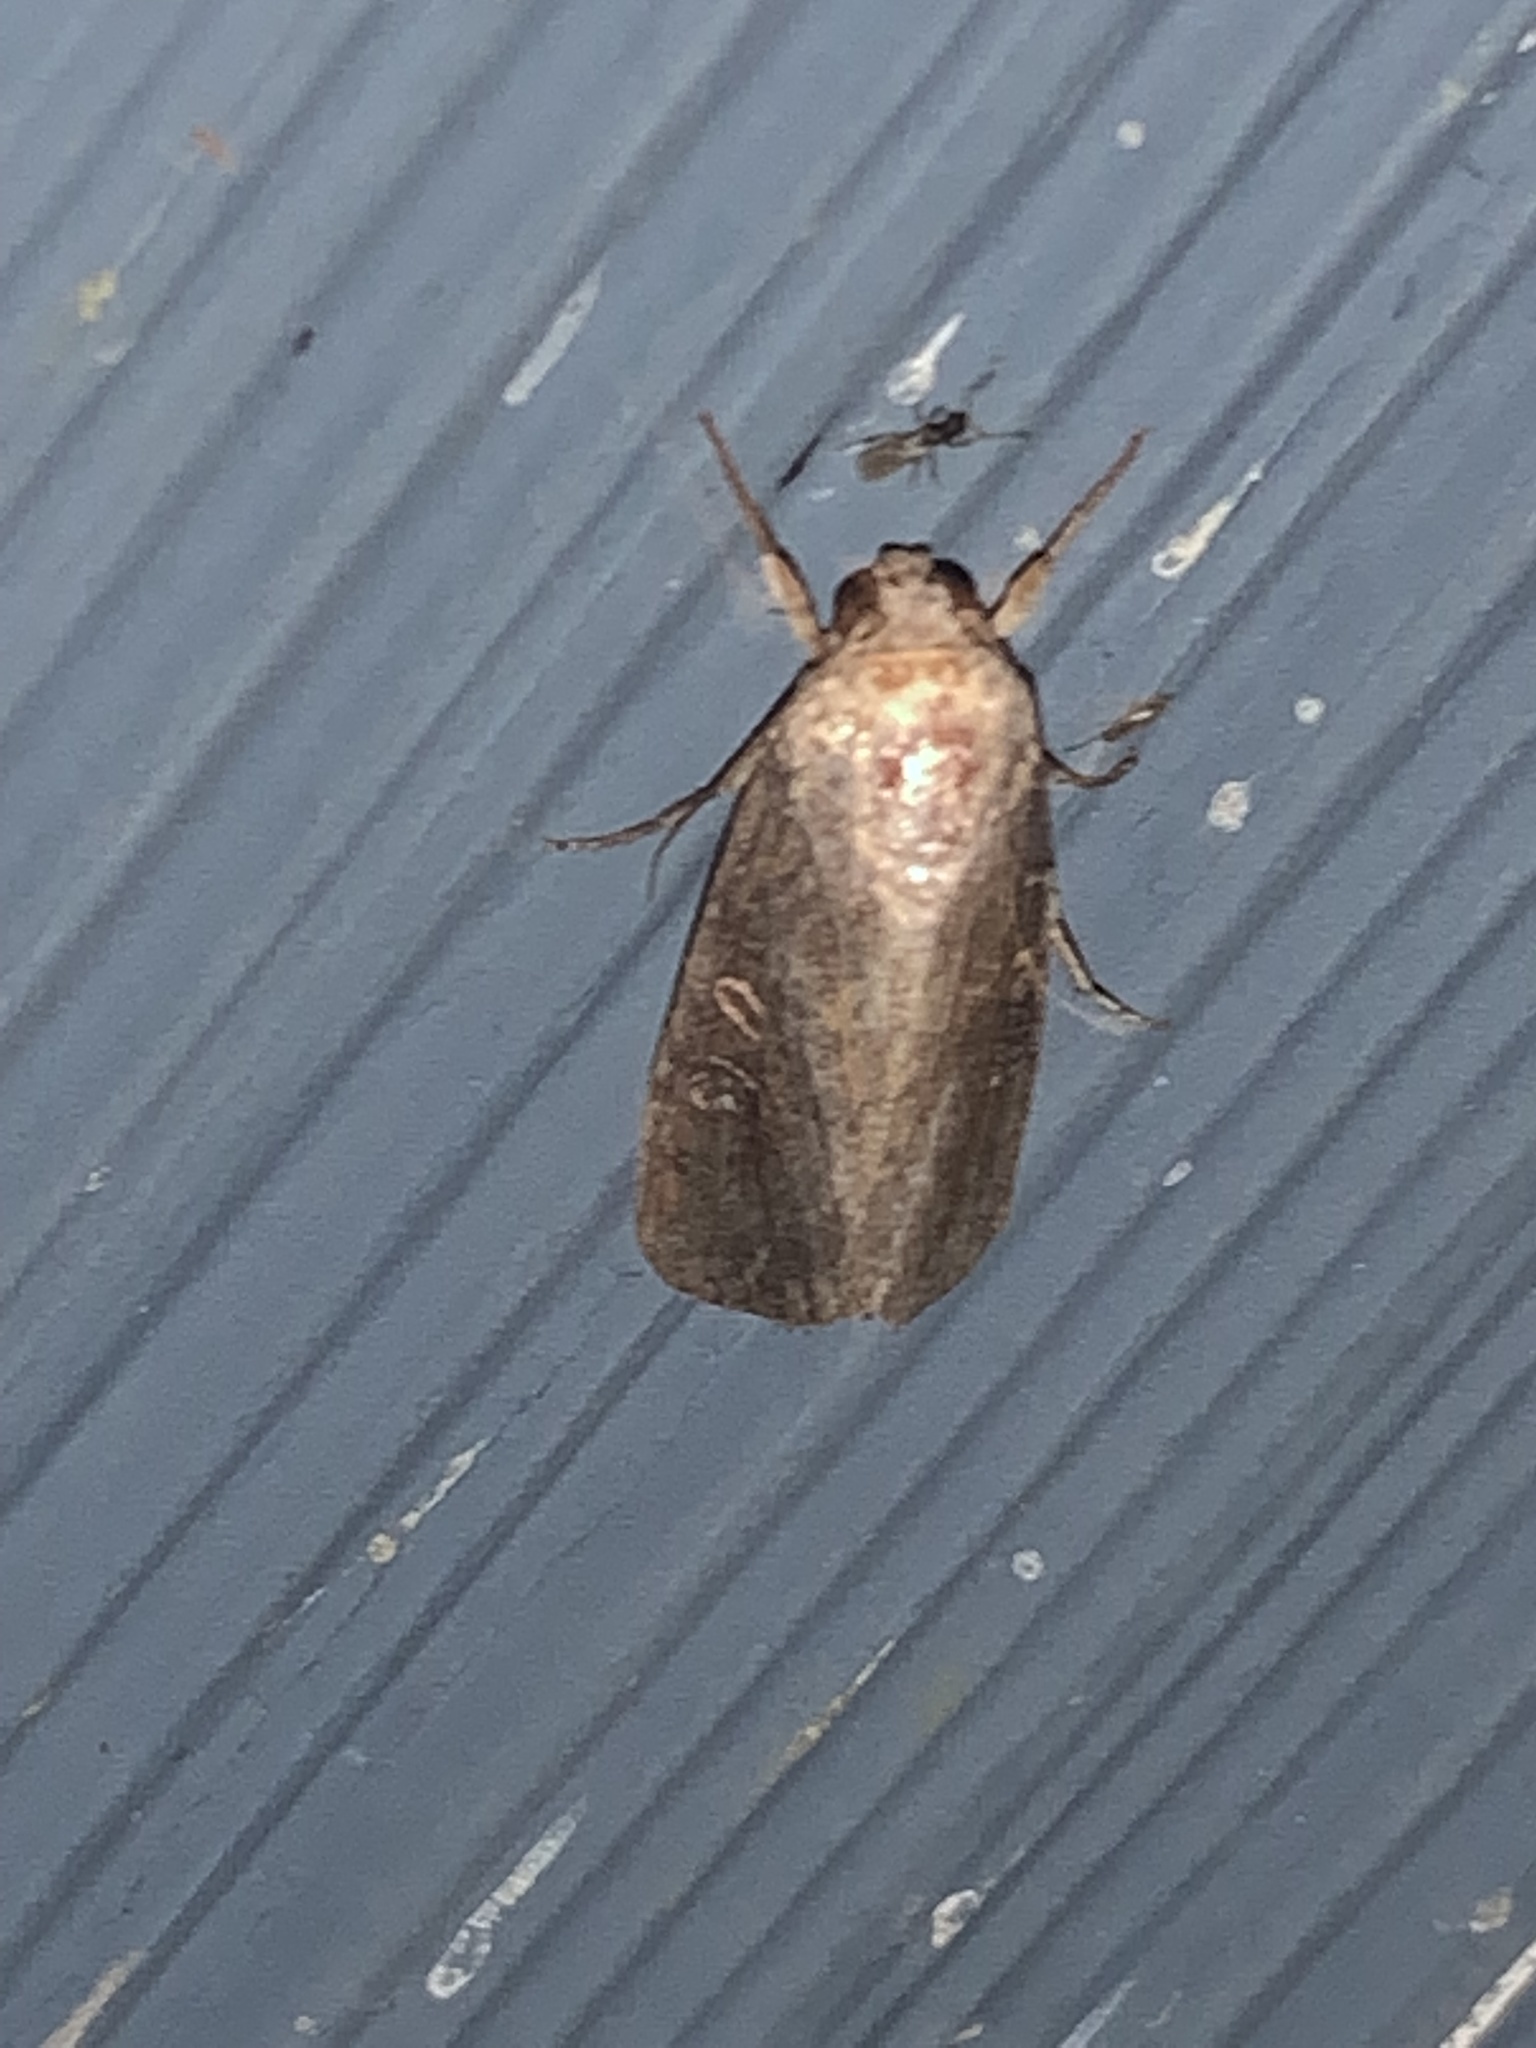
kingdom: Animalia
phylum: Arthropoda
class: Insecta
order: Lepidoptera
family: Noctuidae
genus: Spodoptera
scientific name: Spodoptera frugiperda
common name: Fall armyworm
